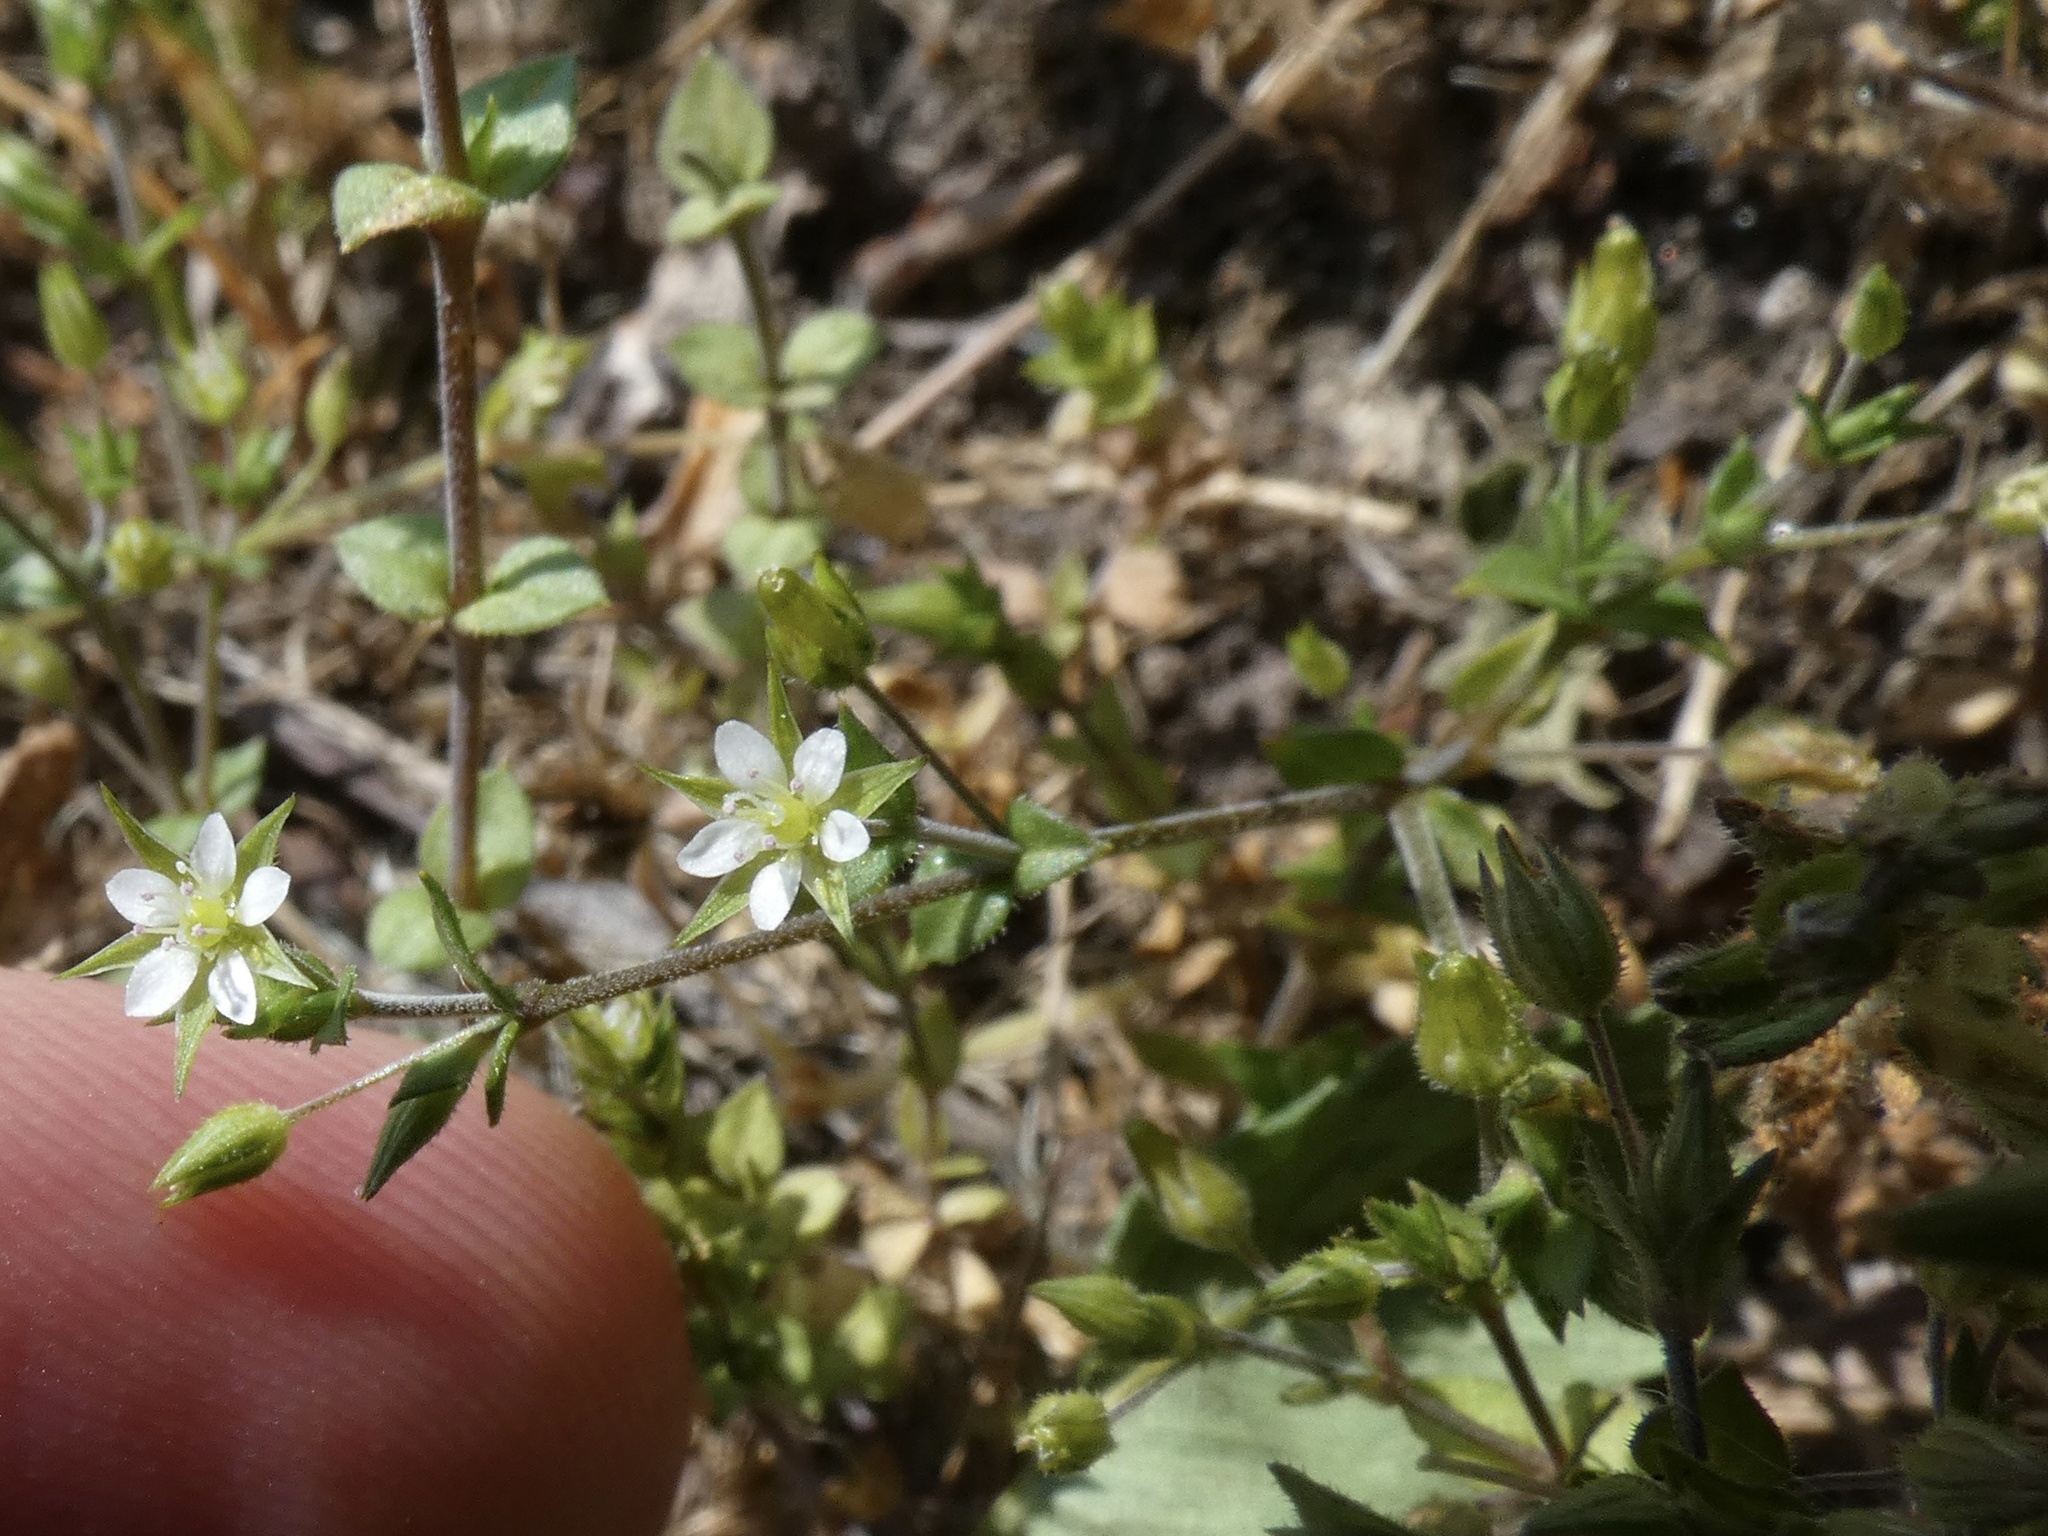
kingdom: Plantae
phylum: Tracheophyta
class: Magnoliopsida
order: Caryophyllales
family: Caryophyllaceae
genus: Arenaria
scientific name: Arenaria serpyllifolia
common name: Thyme-leaved sandwort
